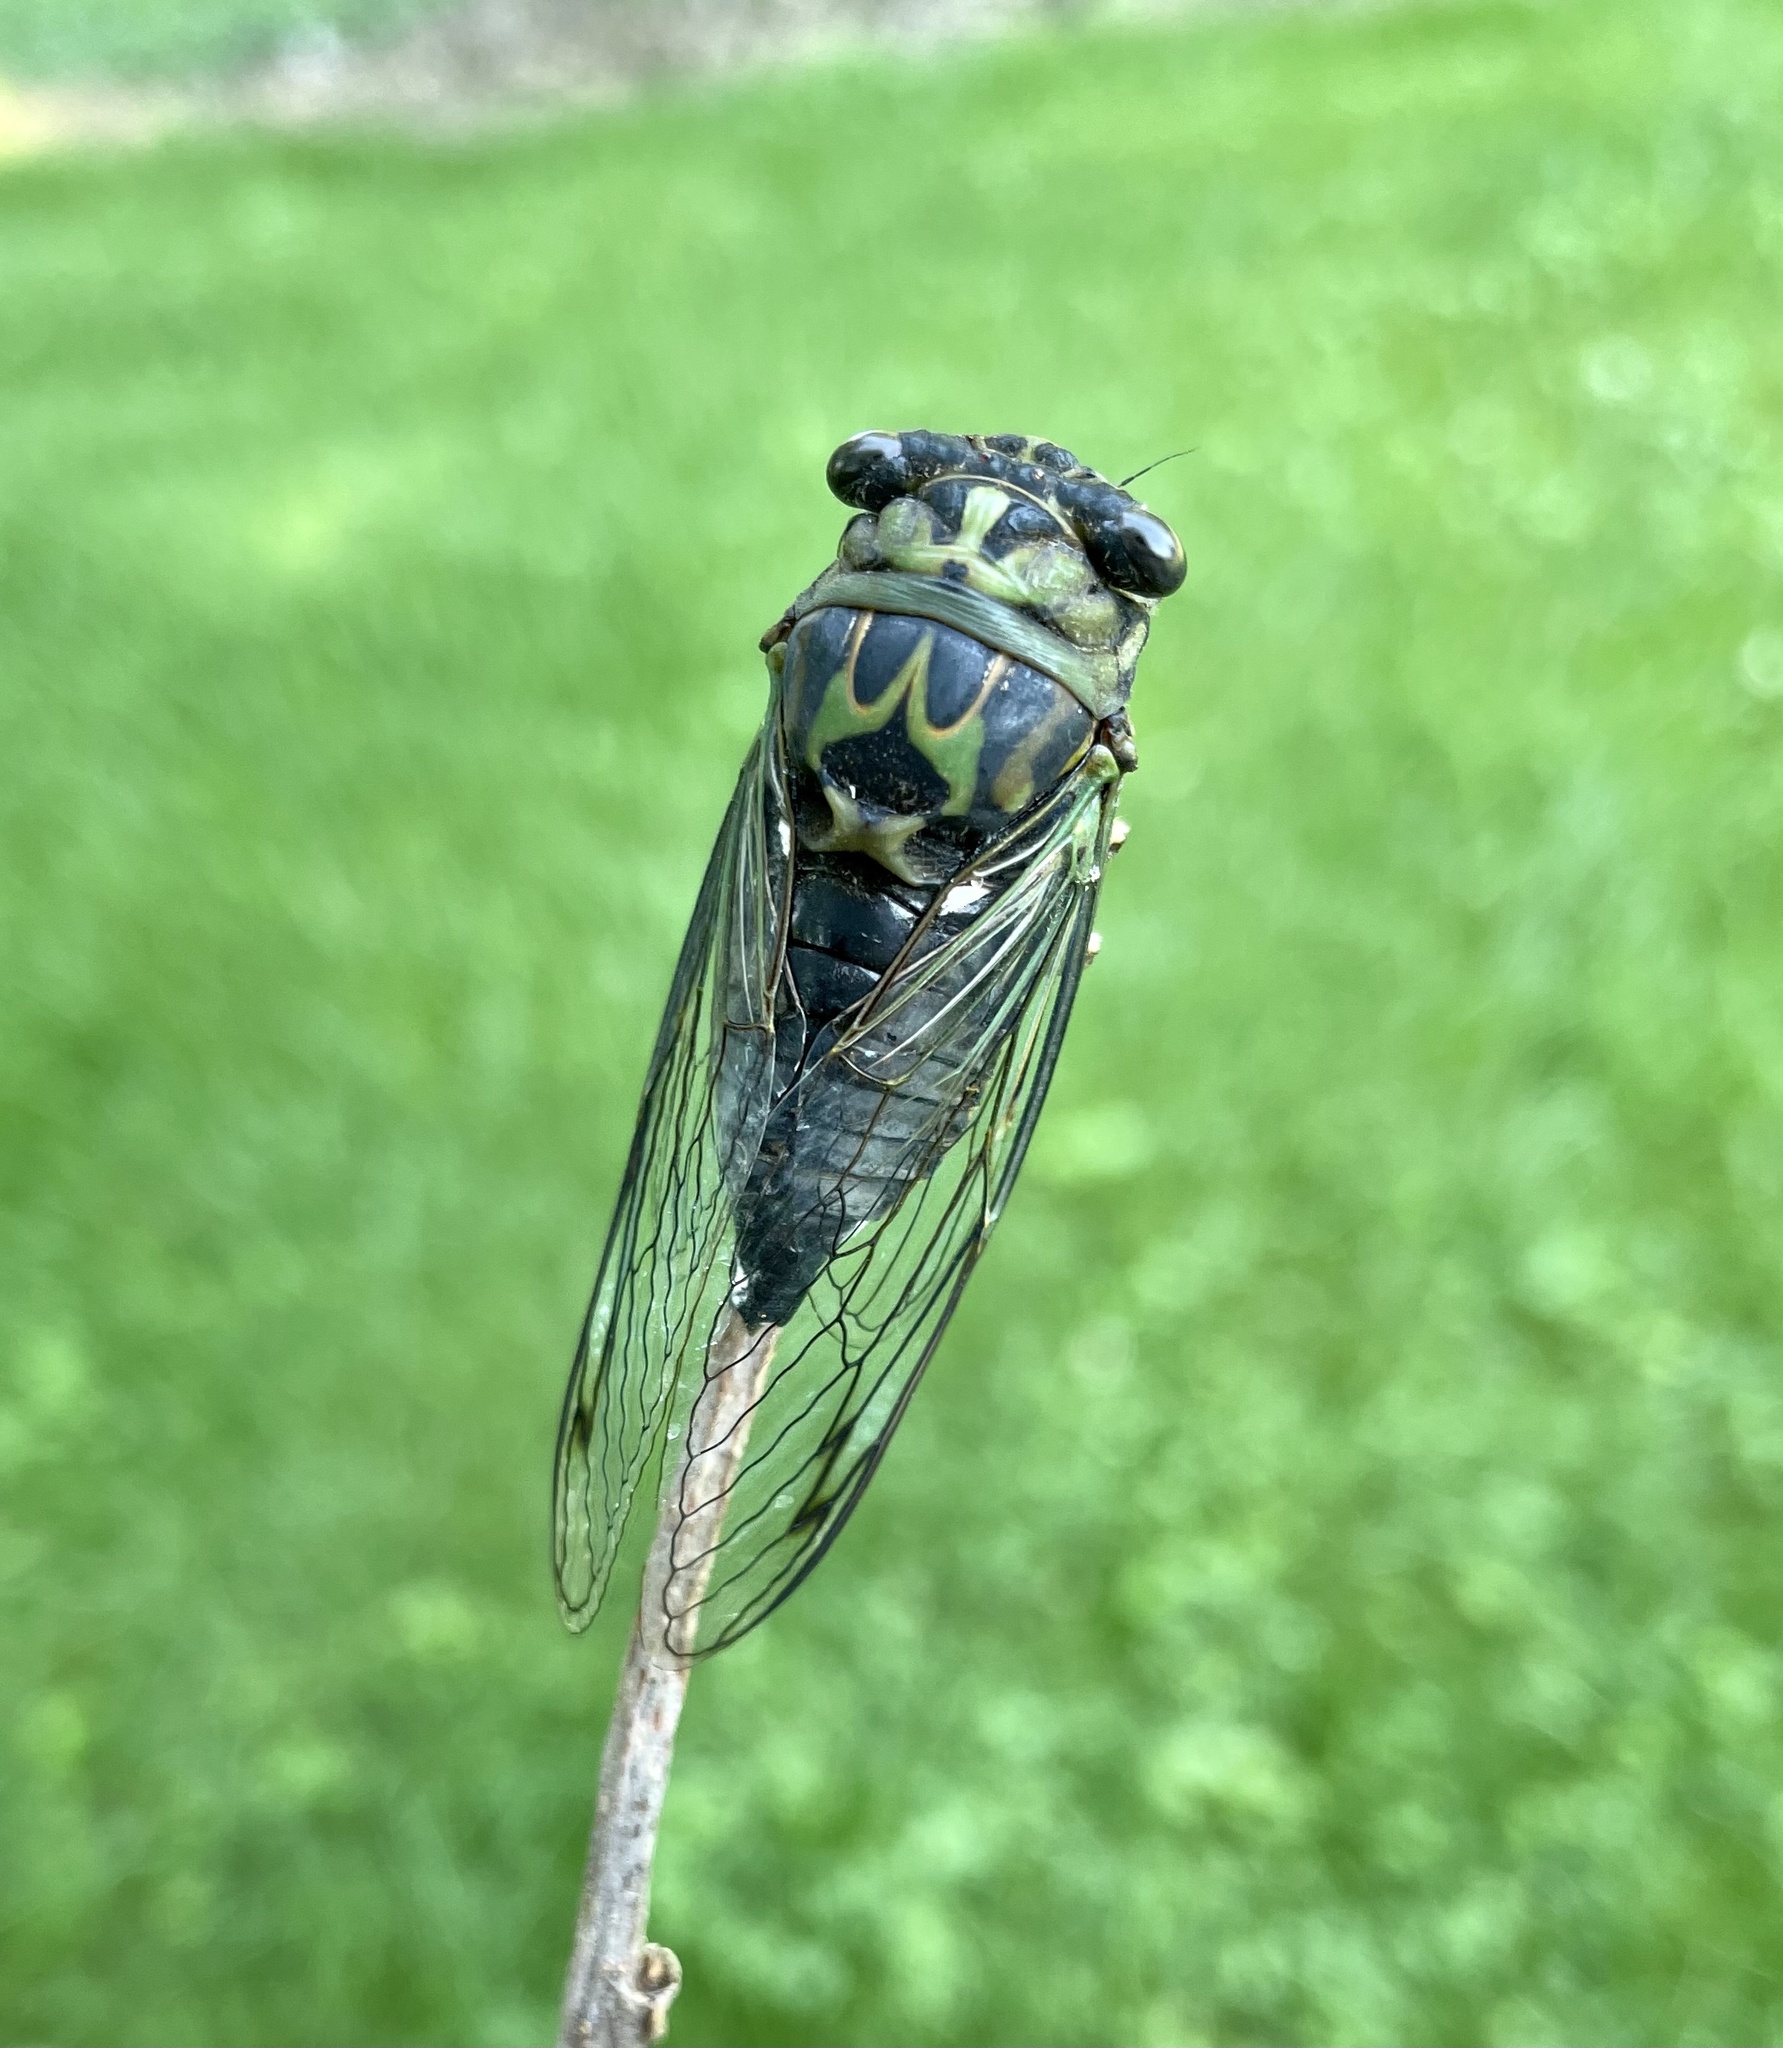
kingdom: Animalia
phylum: Arthropoda
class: Insecta
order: Hemiptera
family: Cicadidae
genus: Neotibicen
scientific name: Neotibicen canicularis
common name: God-day cicada
